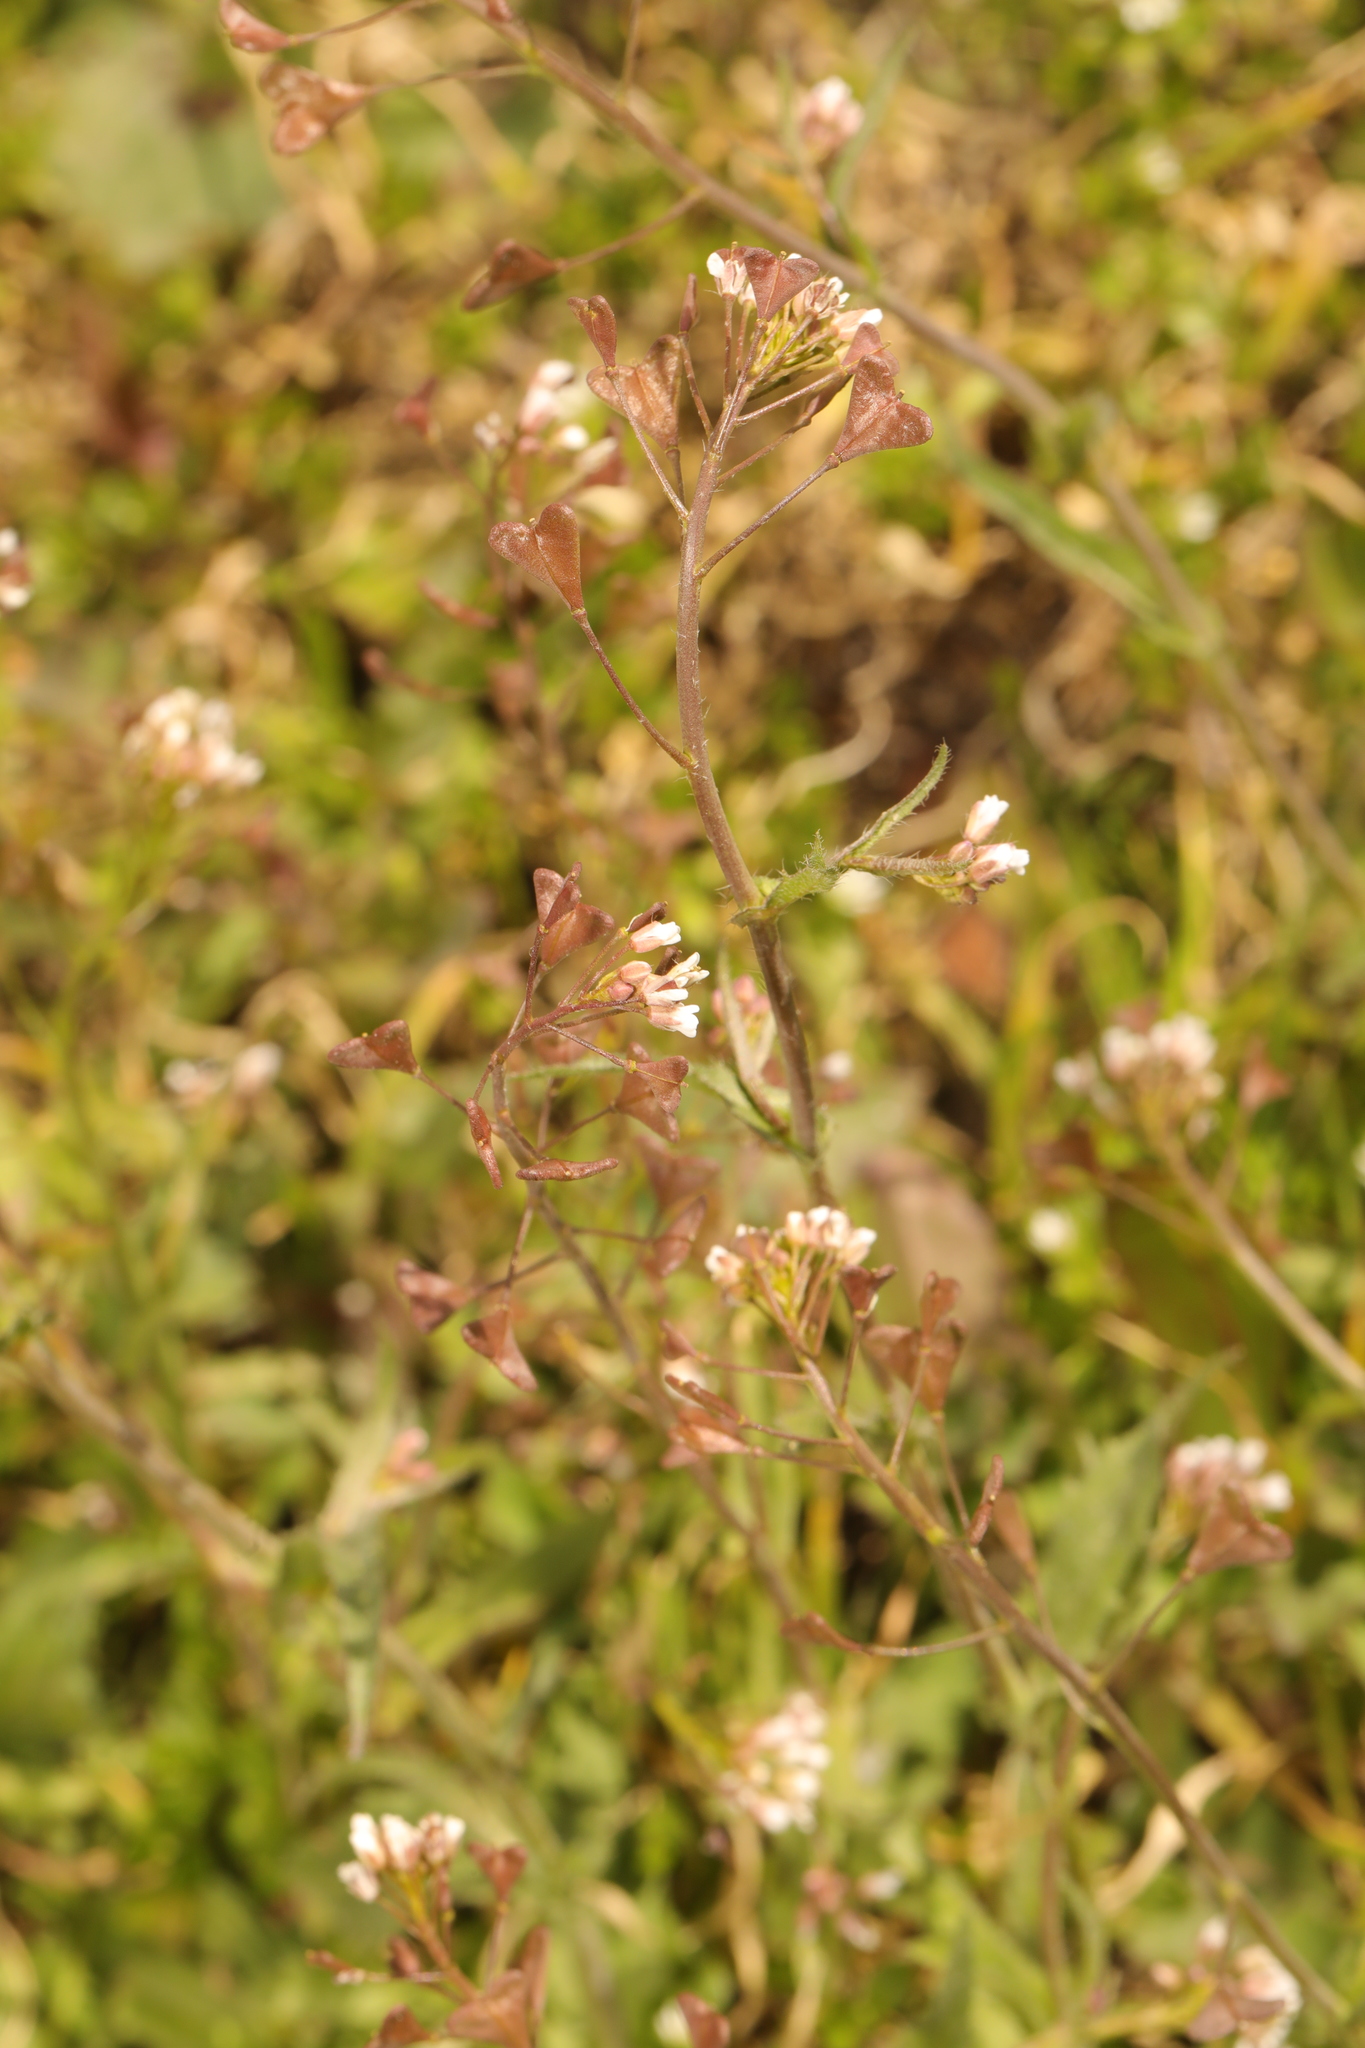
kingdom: Plantae
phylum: Tracheophyta
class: Magnoliopsida
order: Brassicales
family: Brassicaceae
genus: Capsella
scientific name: Capsella bursa-pastoris
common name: Shepherd's purse
